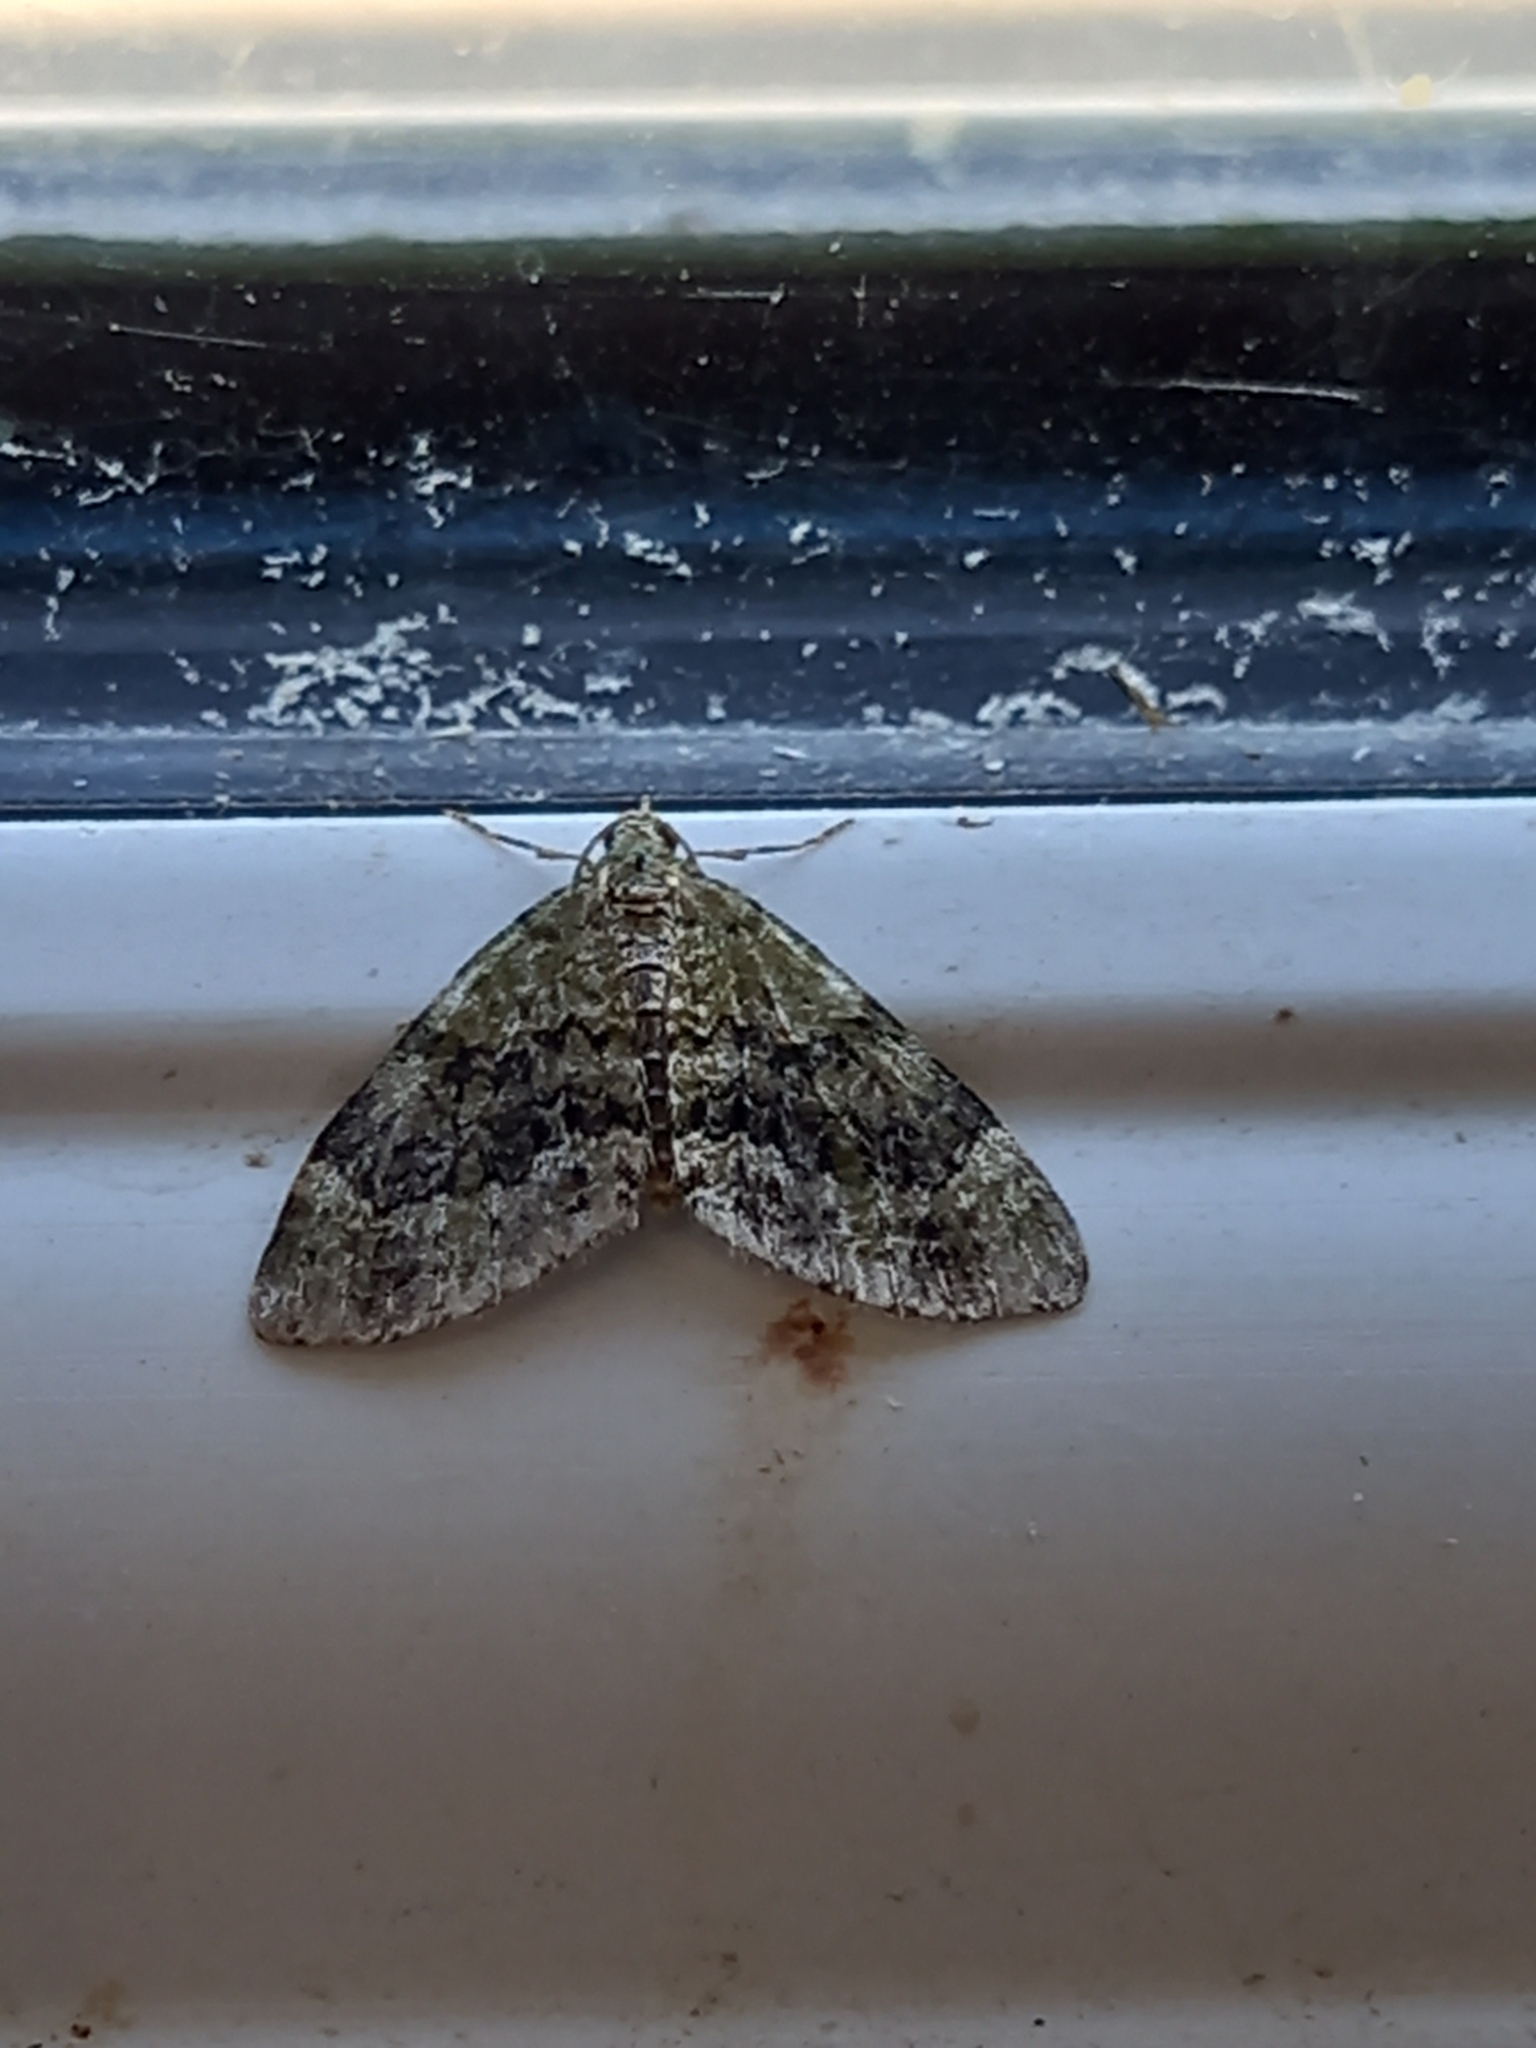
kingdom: Animalia
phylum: Arthropoda
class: Insecta
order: Lepidoptera
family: Geometridae
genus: Acasis
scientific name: Acasis viretata
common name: Yellow-barred brindle
